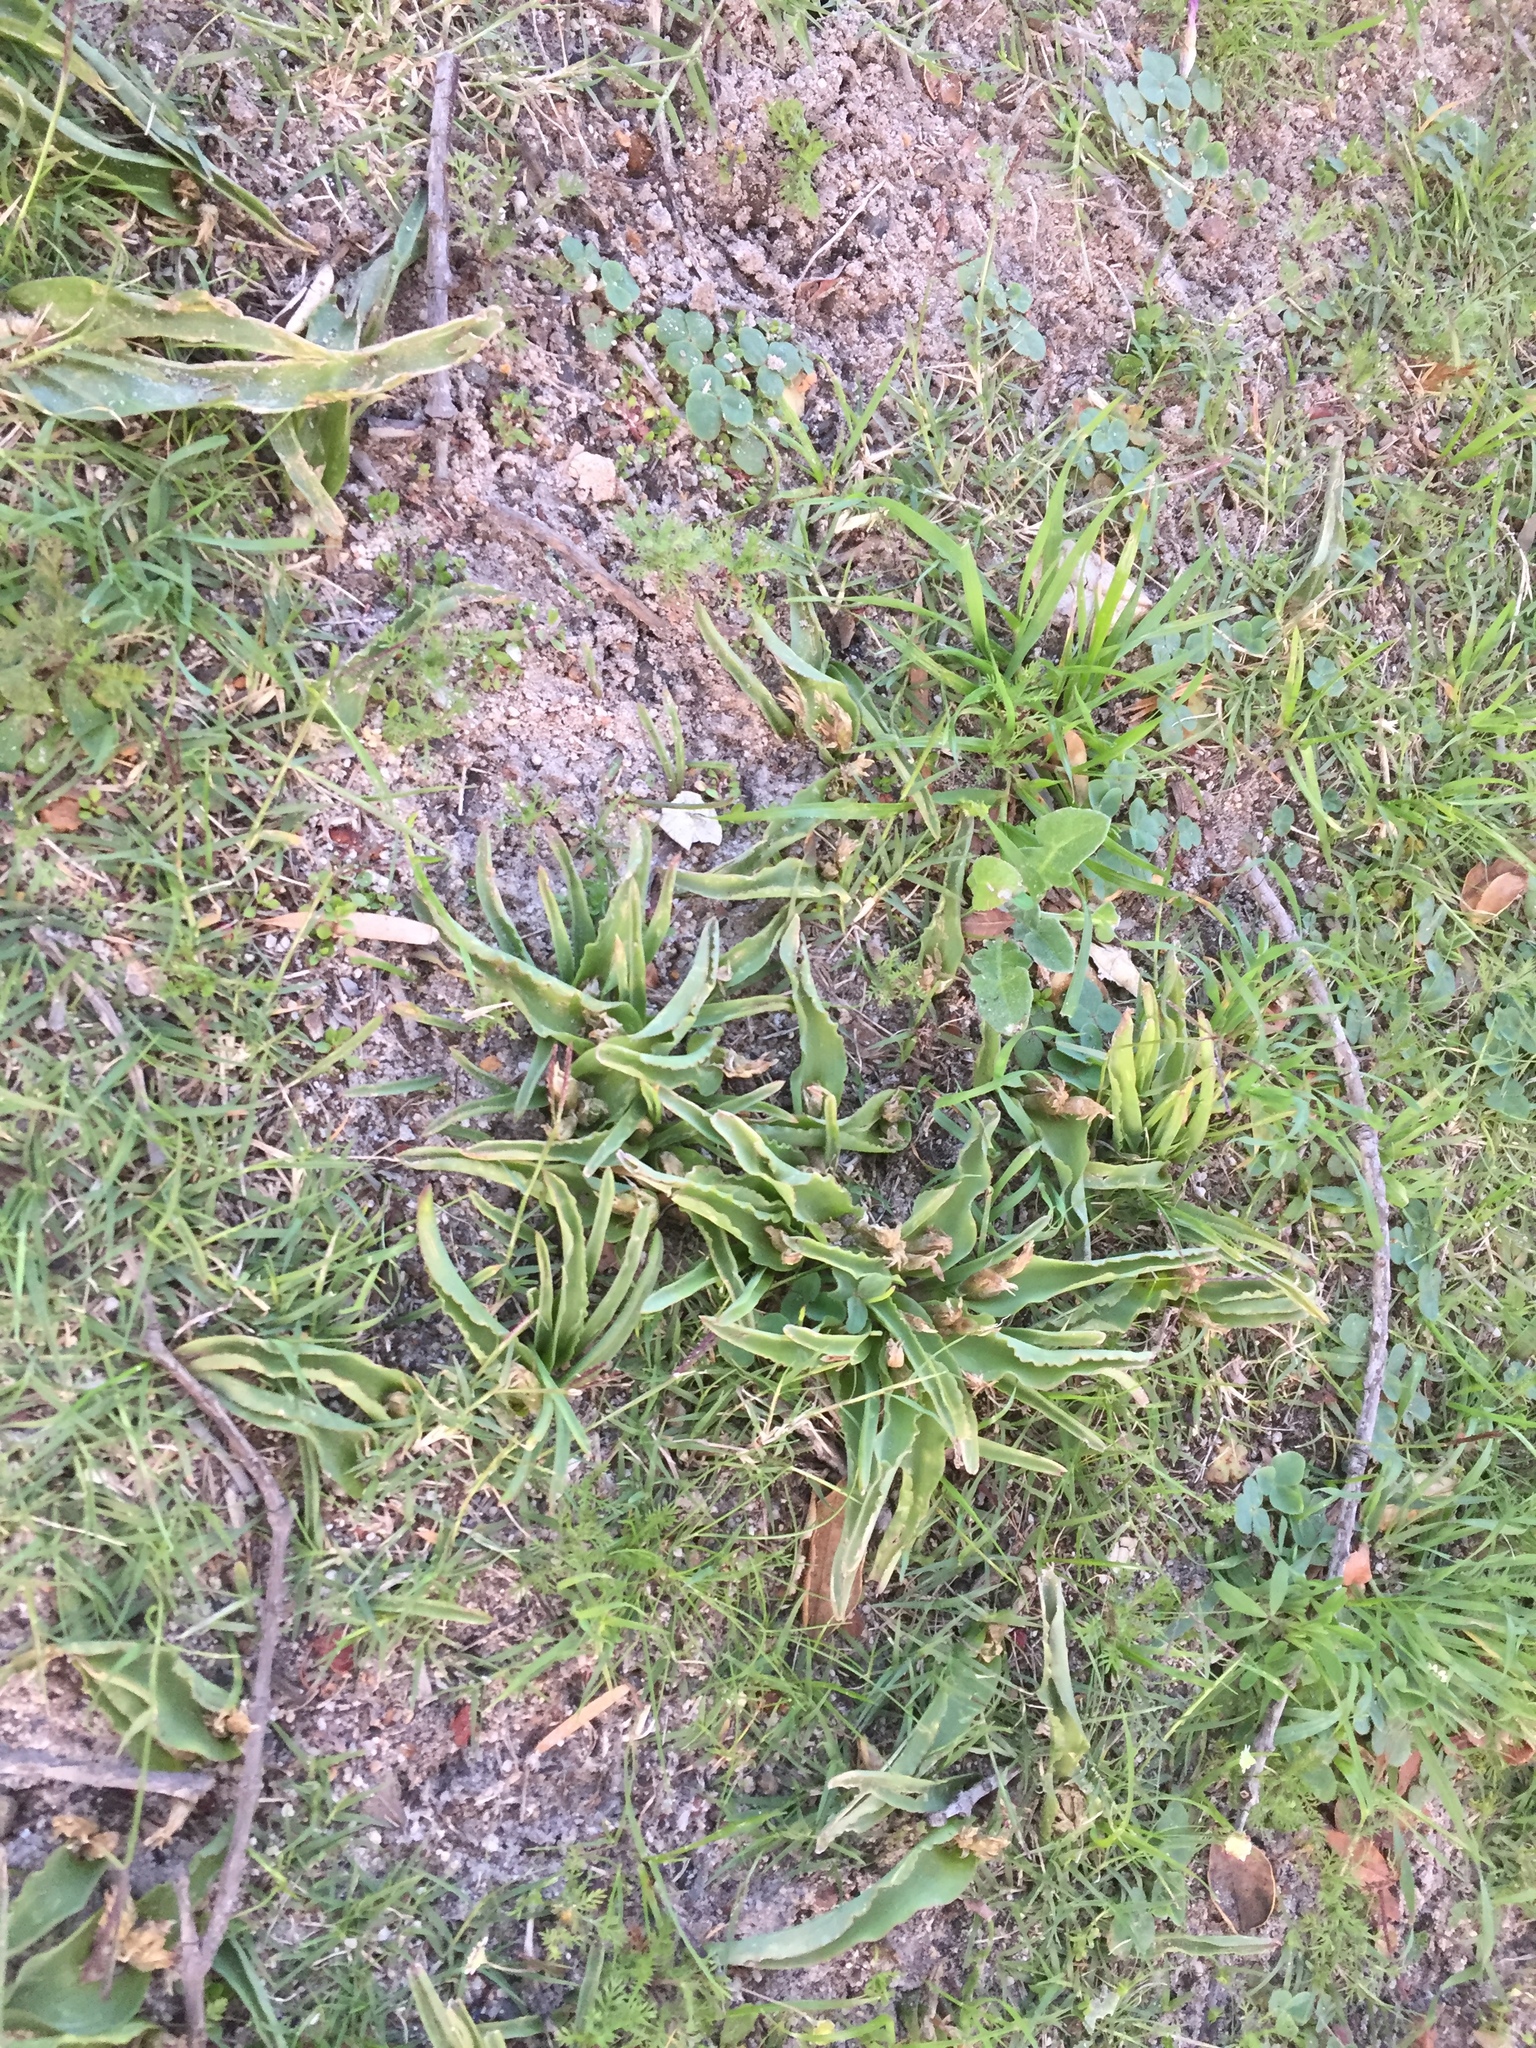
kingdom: Plantae
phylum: Tracheophyta
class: Liliopsida
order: Asparagales
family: Asparagaceae
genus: Lachenalia
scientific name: Lachenalia reflexa
